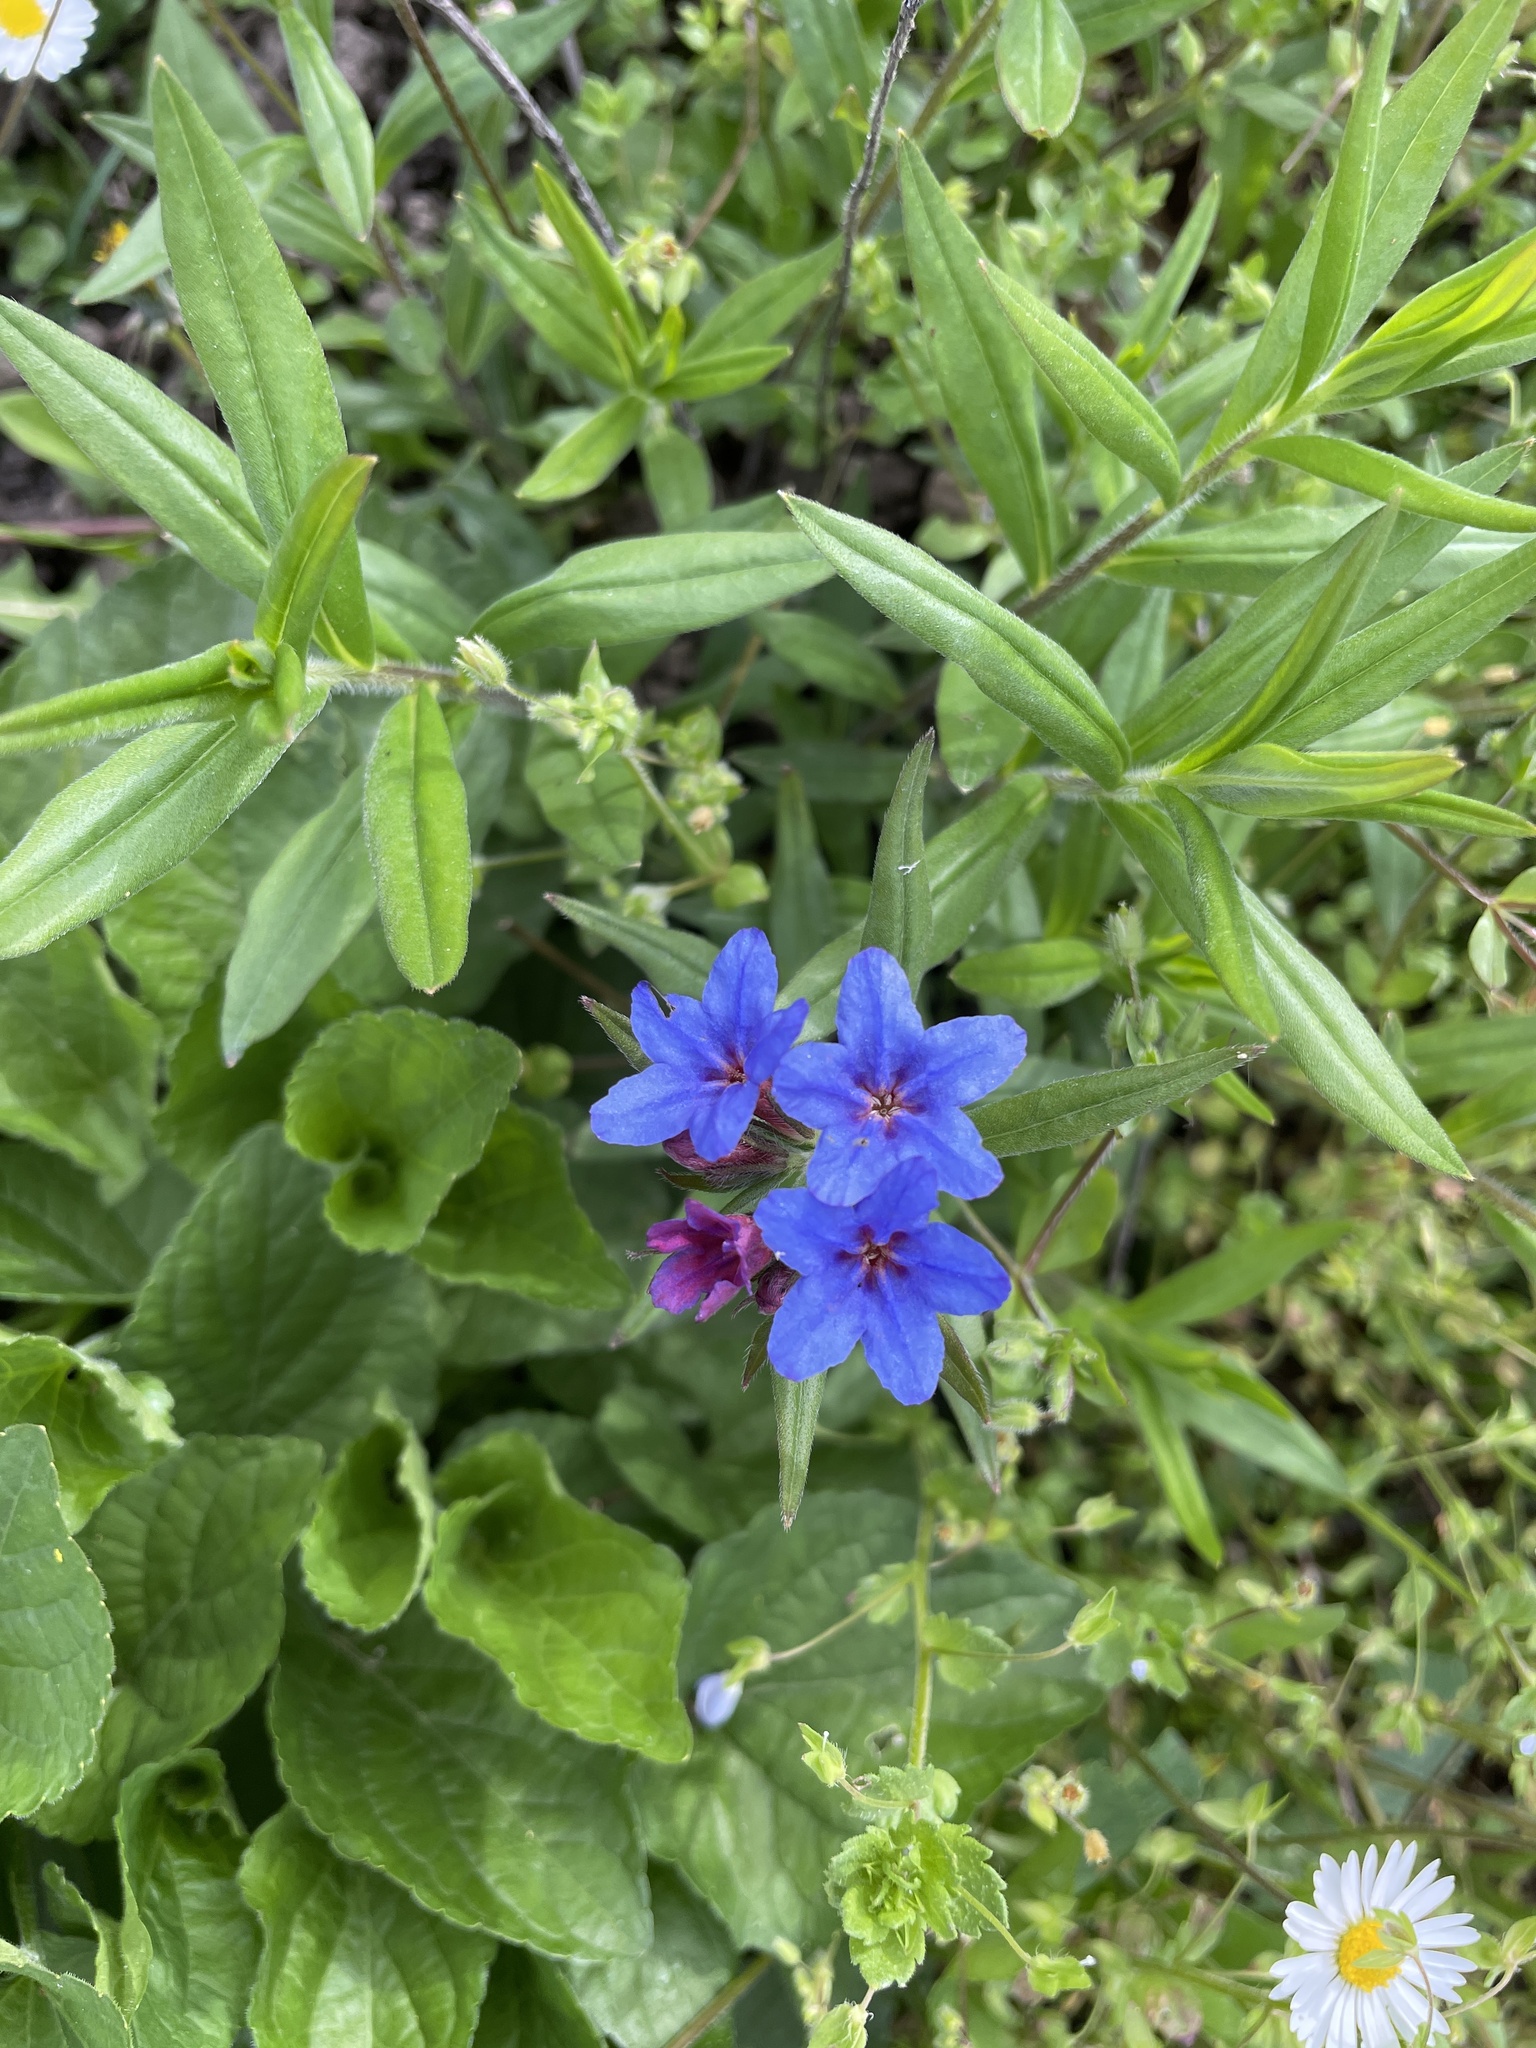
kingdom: Plantae
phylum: Tracheophyta
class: Magnoliopsida
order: Boraginales
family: Boraginaceae
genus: Aegonychon
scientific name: Aegonychon purpurocaeruleum
